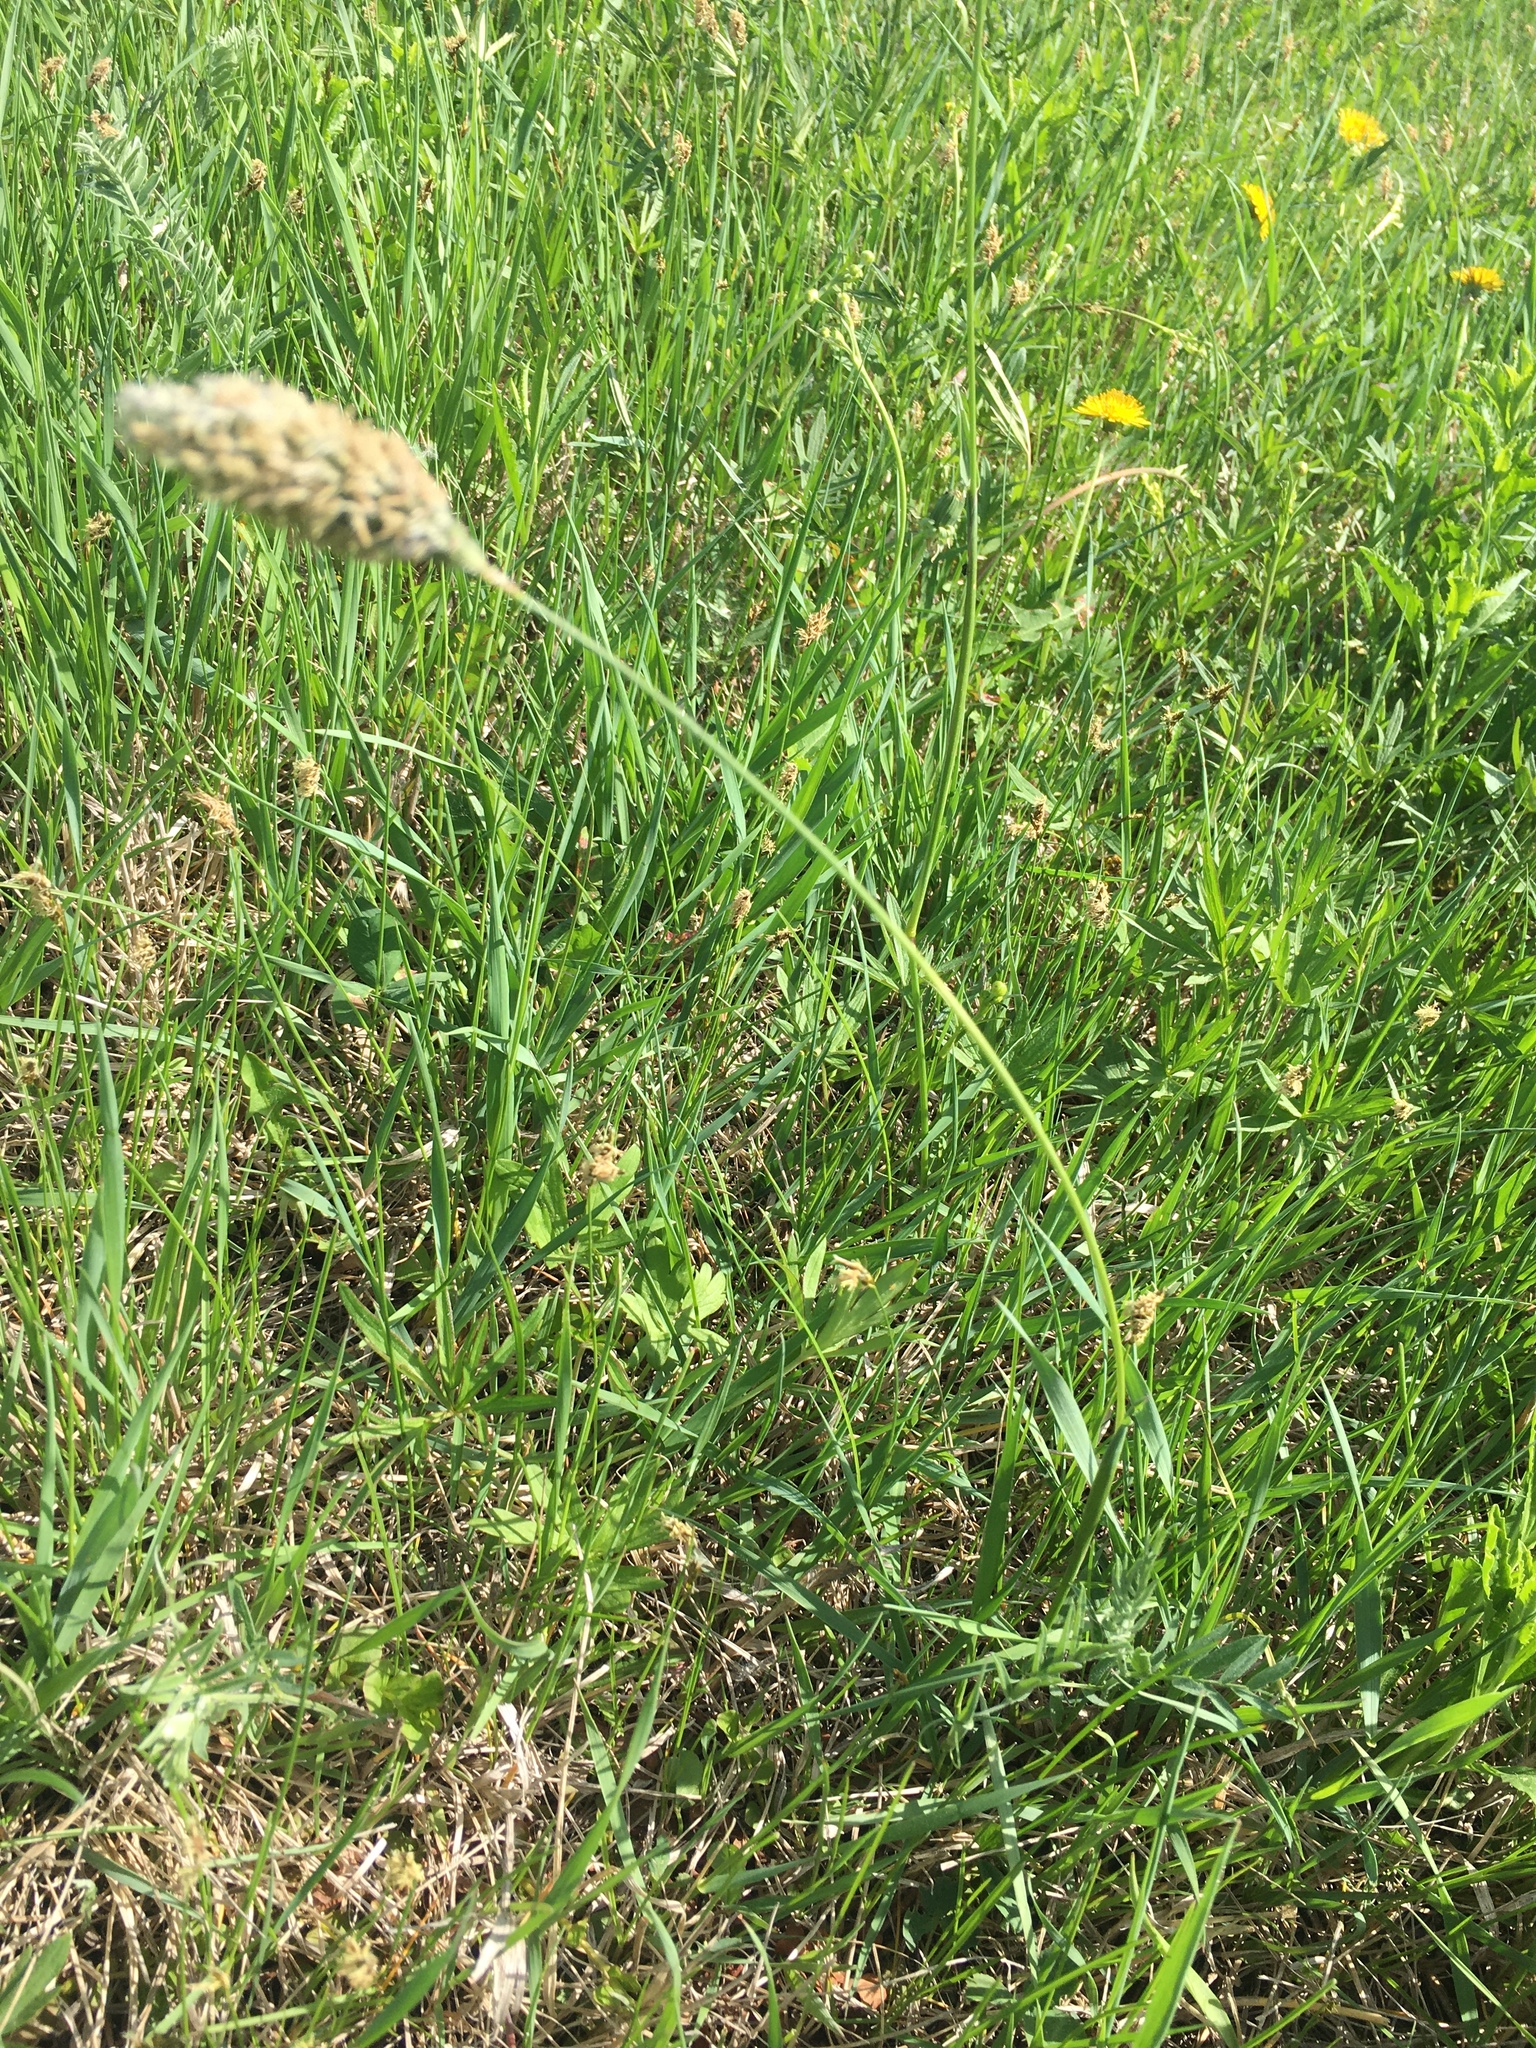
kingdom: Plantae
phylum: Tracheophyta
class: Liliopsida
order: Poales
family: Poaceae
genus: Alopecurus
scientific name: Alopecurus pratensis
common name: Meadow foxtail
